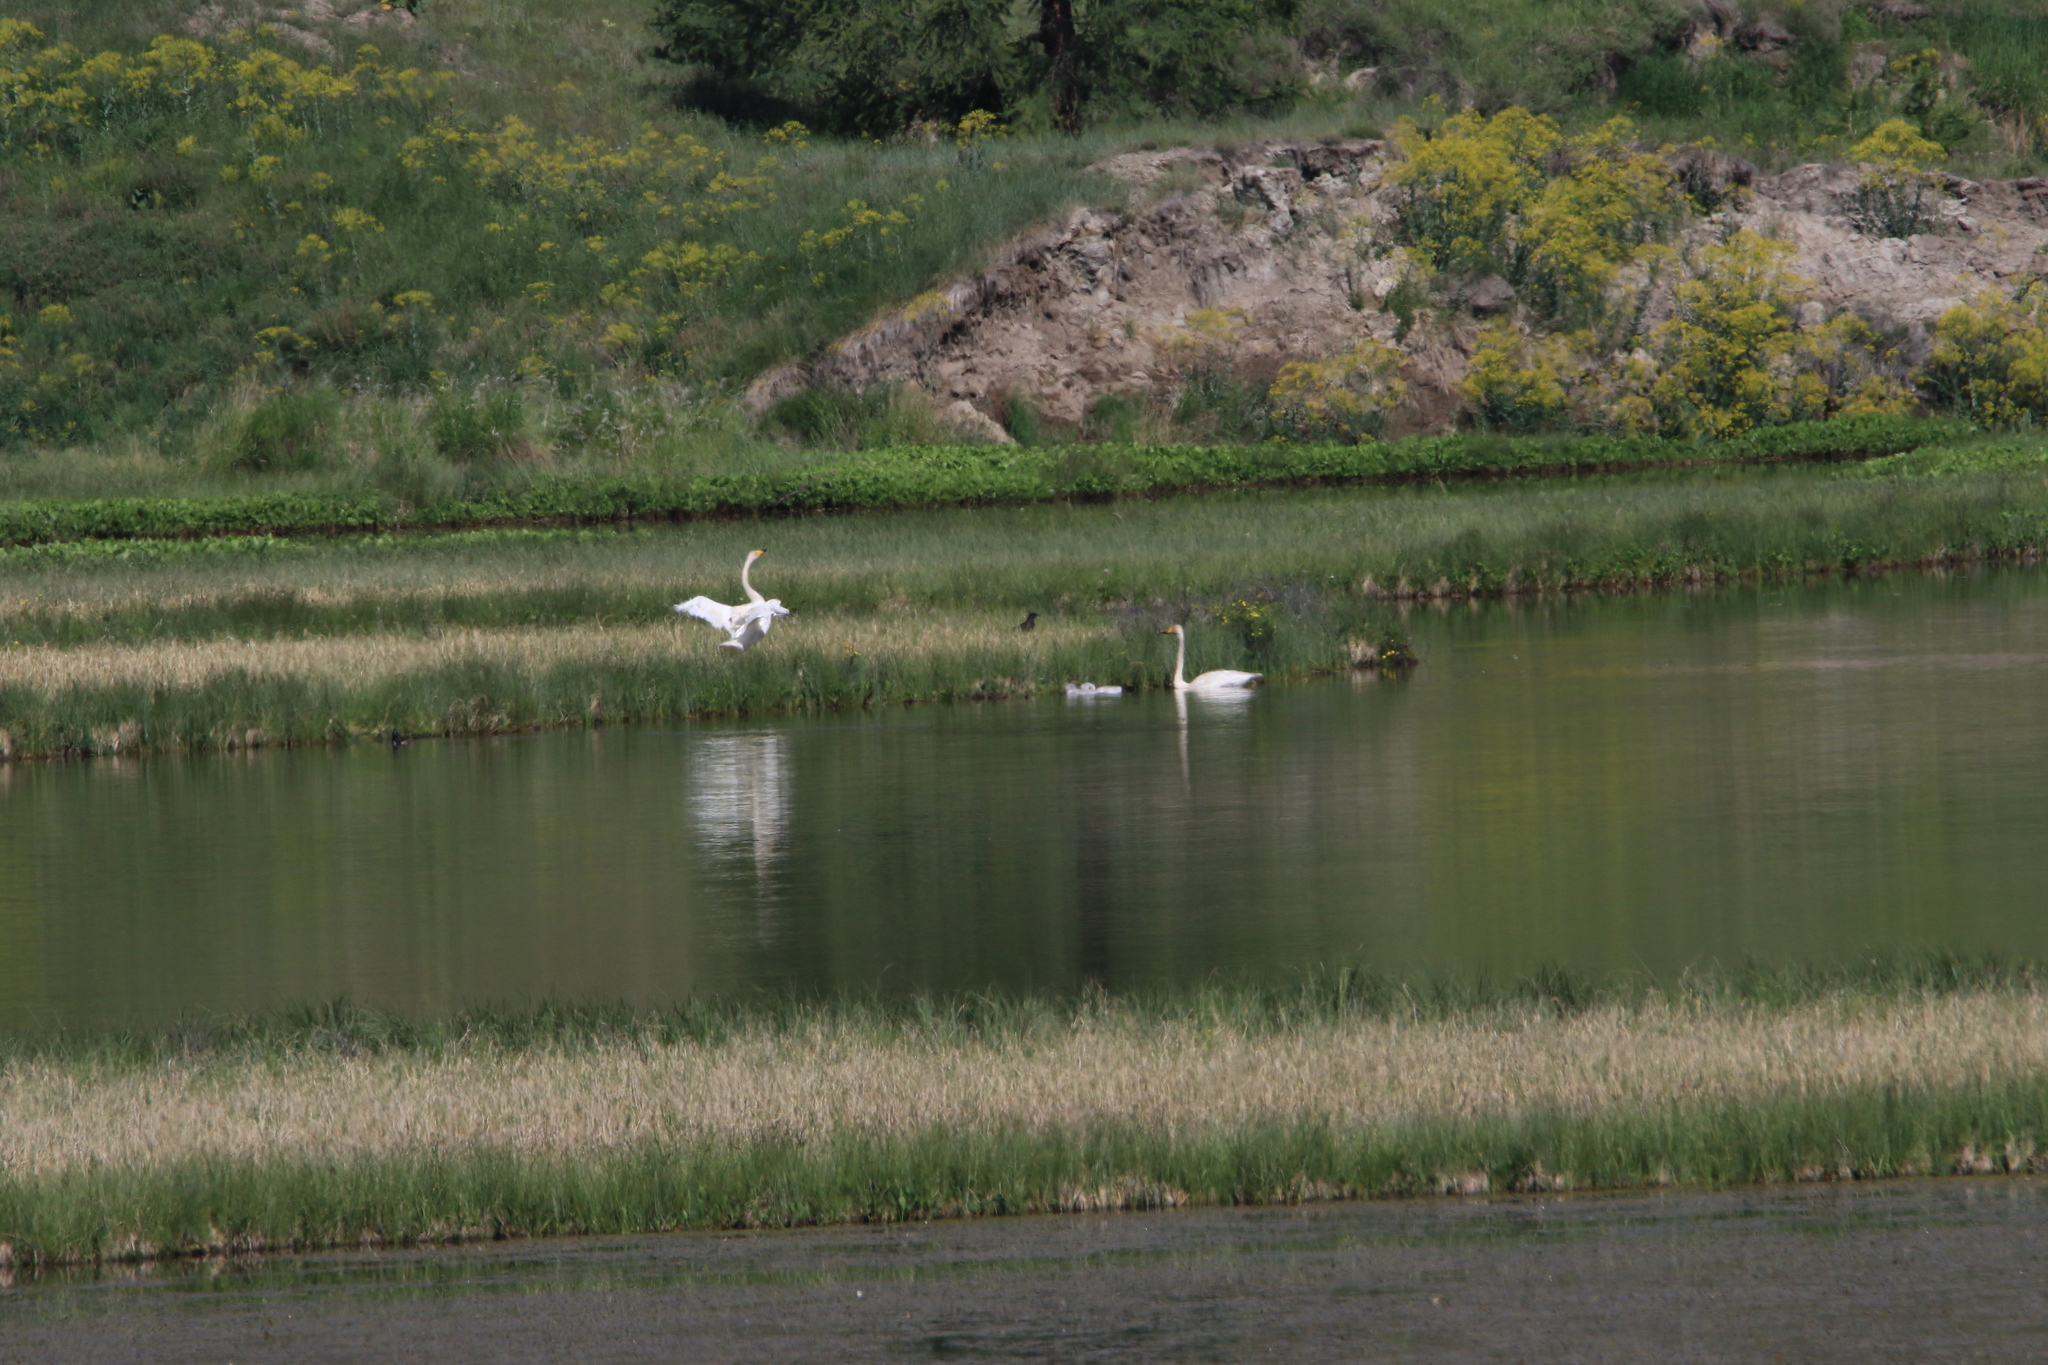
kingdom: Animalia
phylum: Chordata
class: Aves
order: Anseriformes
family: Anatidae
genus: Cygnus
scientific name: Cygnus cygnus
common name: Whooper swan
